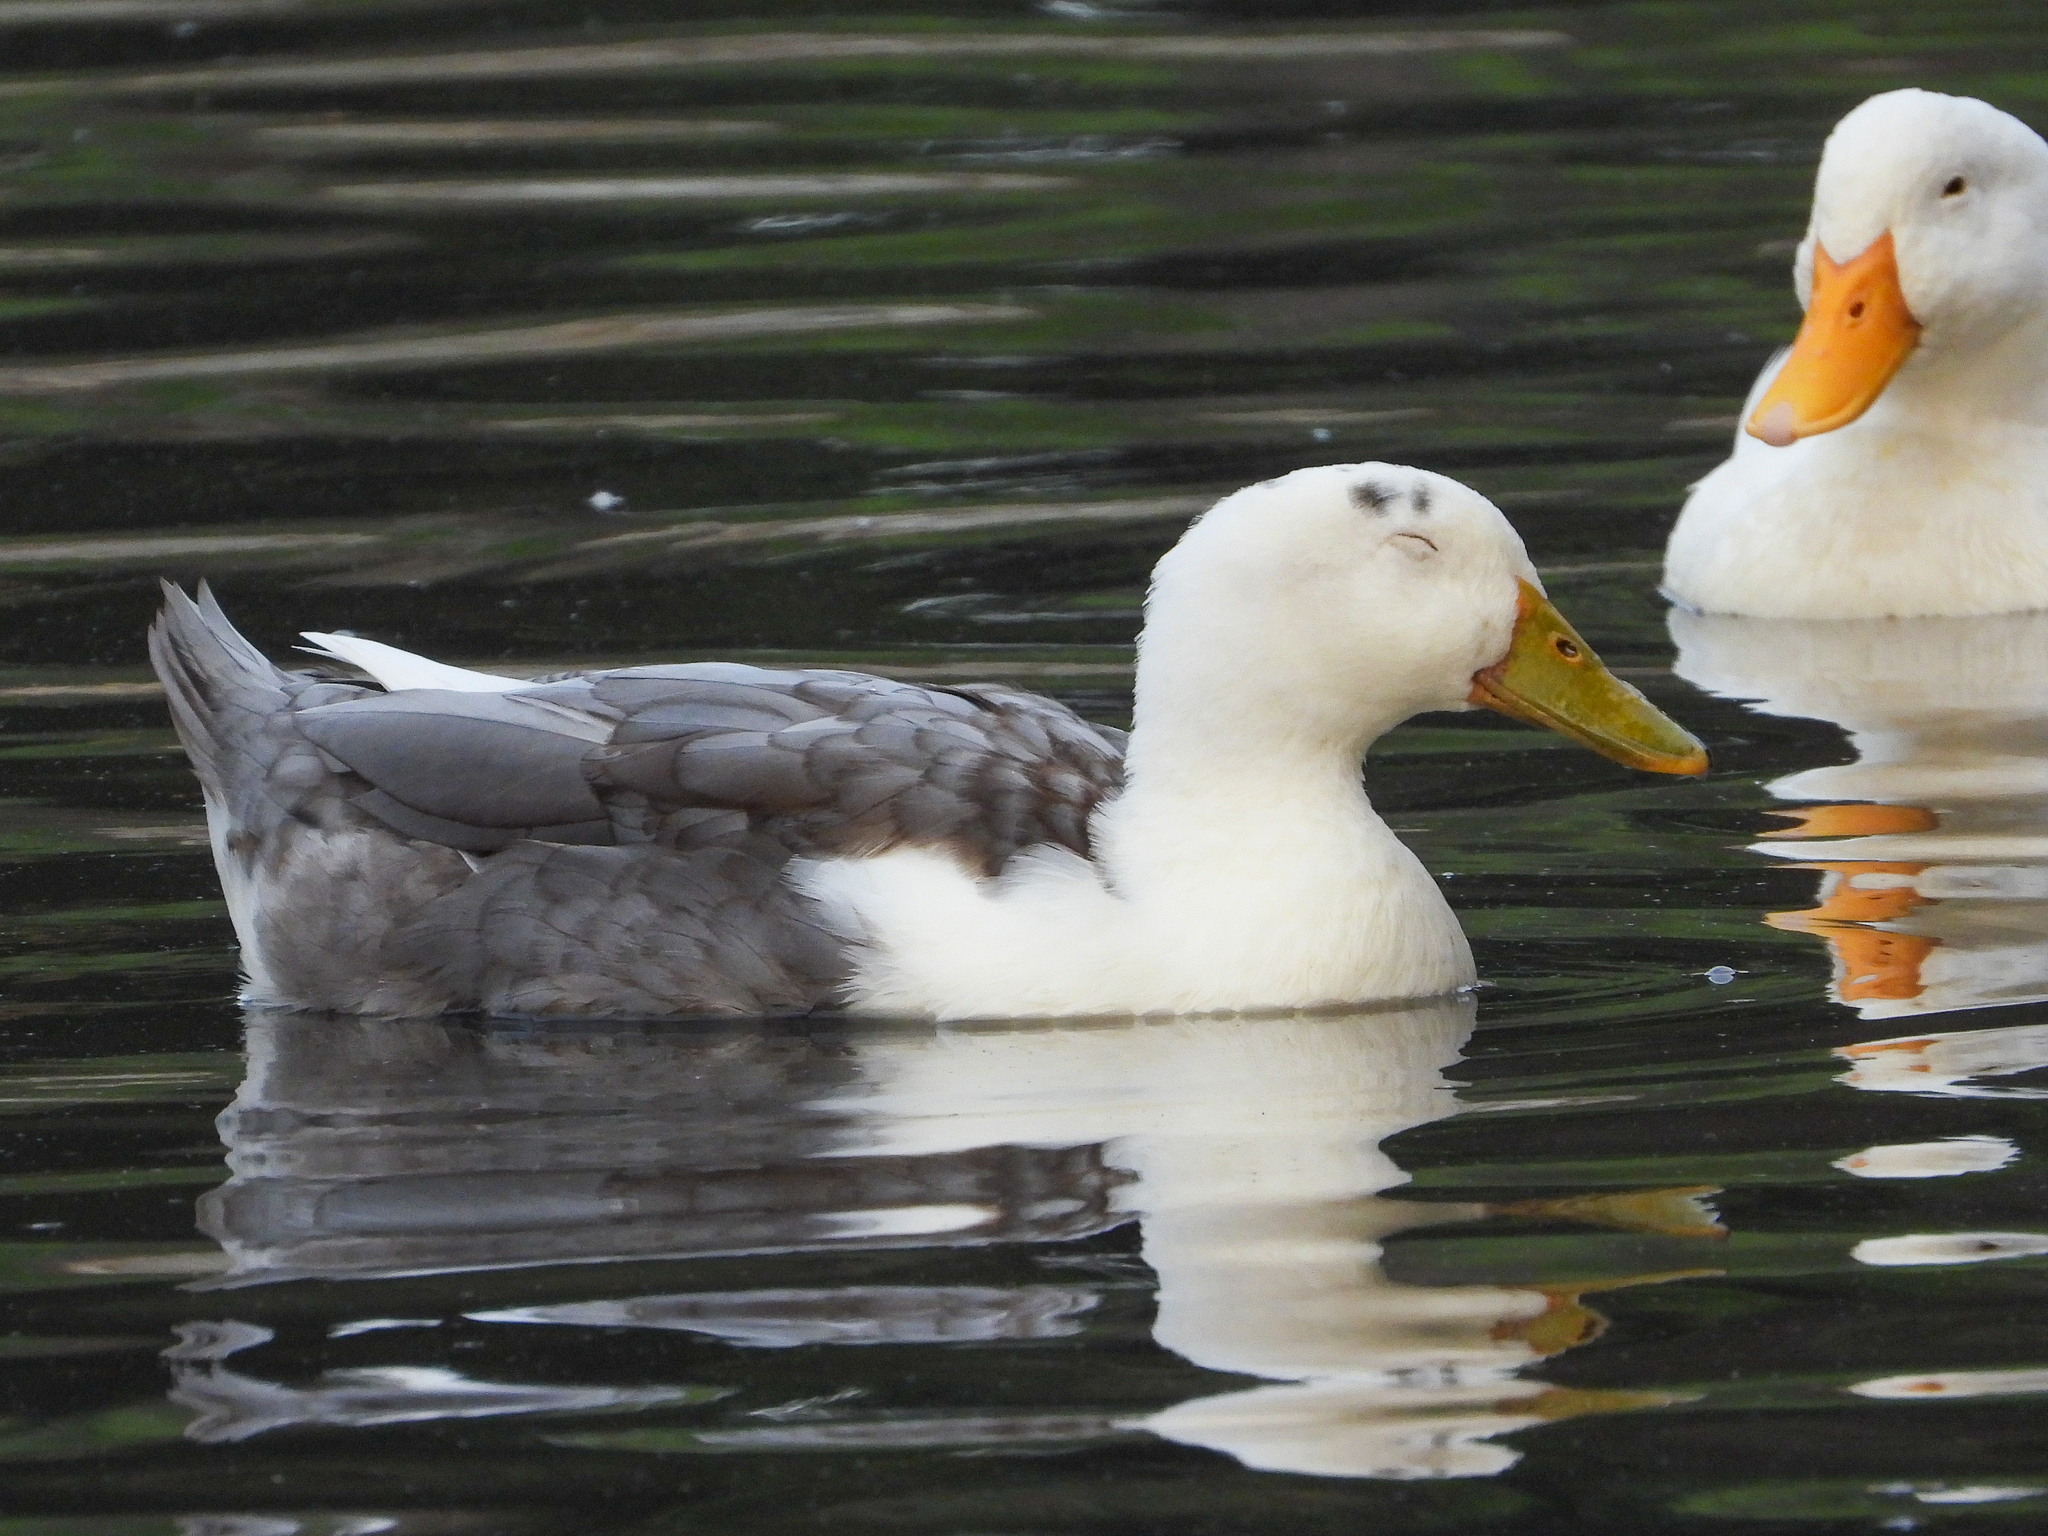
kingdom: Animalia
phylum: Chordata
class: Aves
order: Anseriformes
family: Anatidae
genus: Anas
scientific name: Anas platyrhynchos
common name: Mallard
